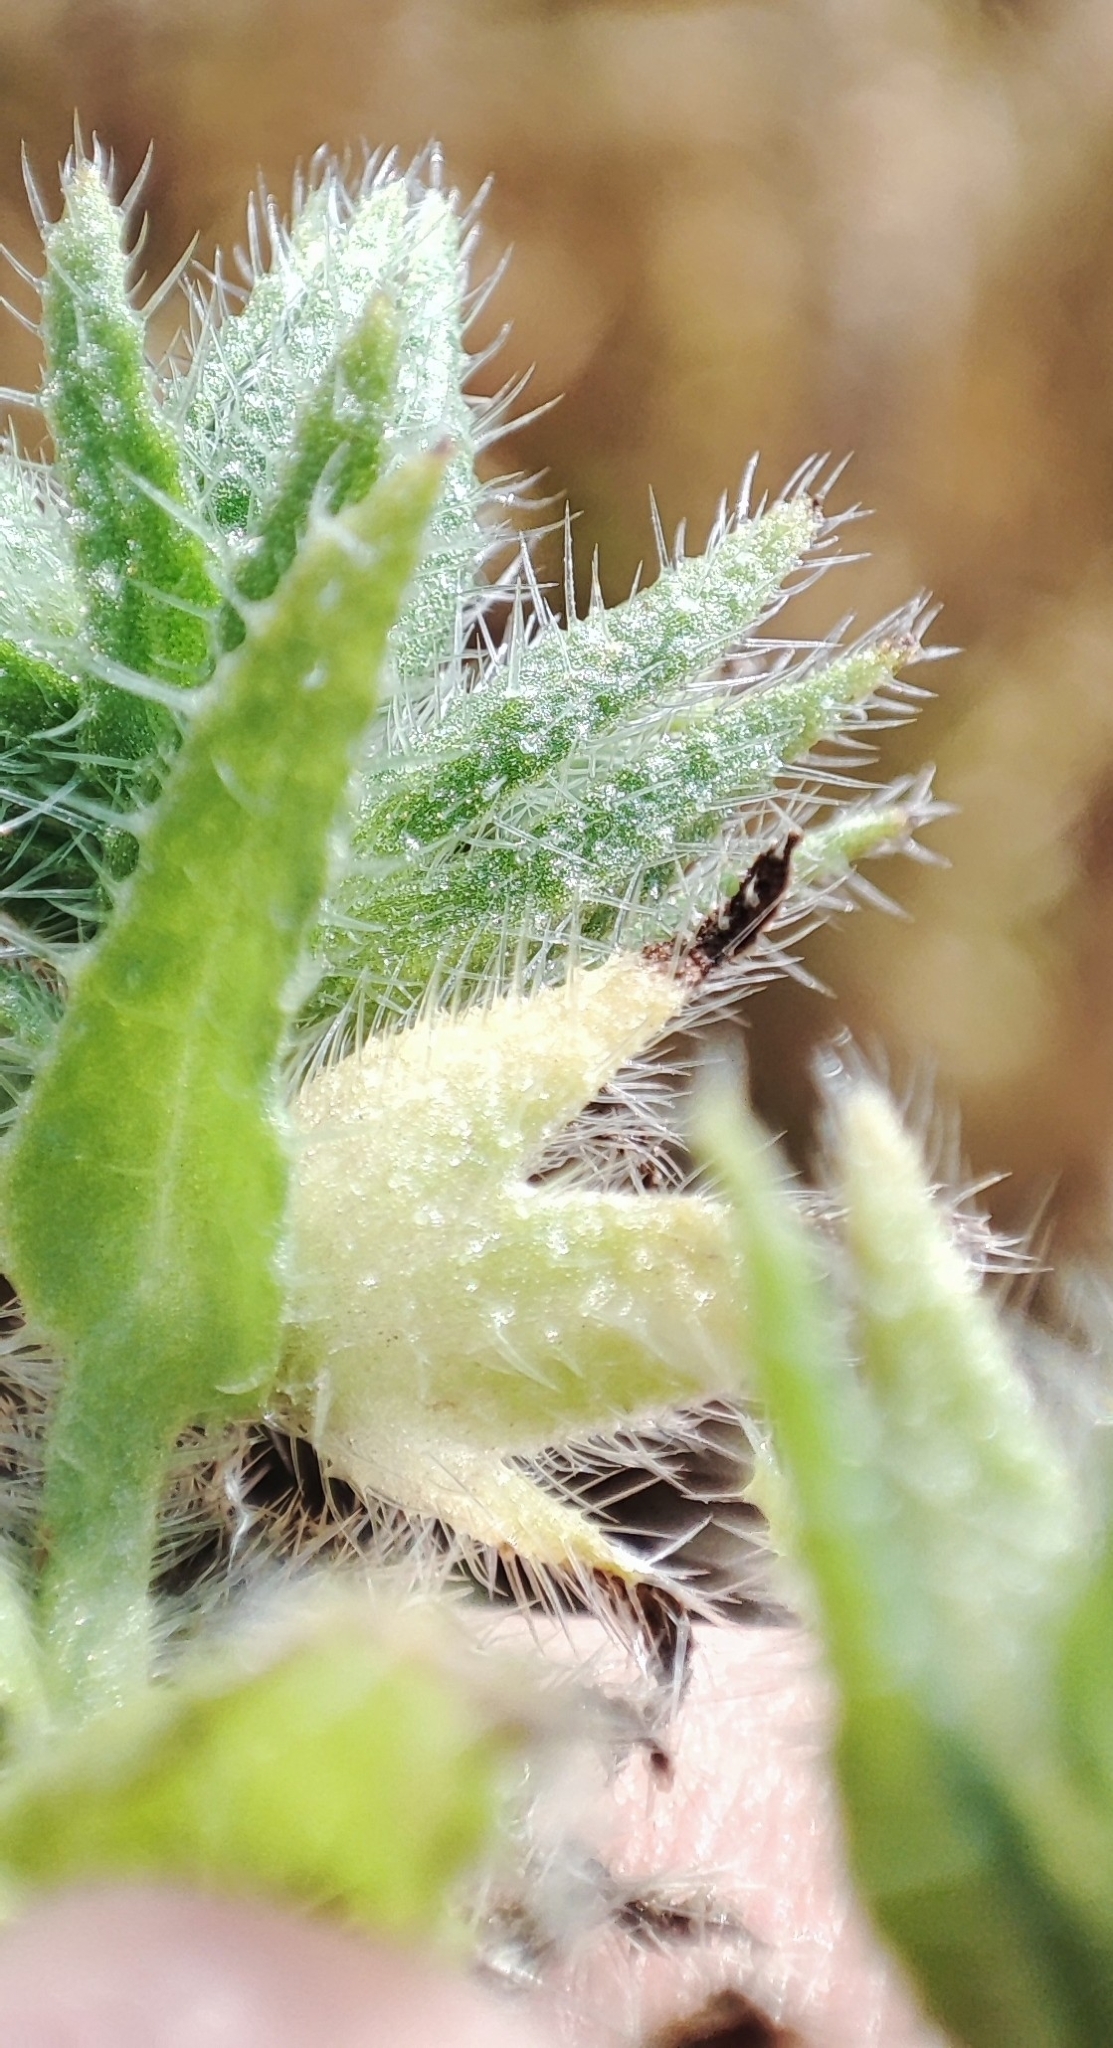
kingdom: Plantae
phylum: Tracheophyta
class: Magnoliopsida
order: Boraginales
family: Boraginaceae
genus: Lycopsis
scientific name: Lycopsis arvensis
